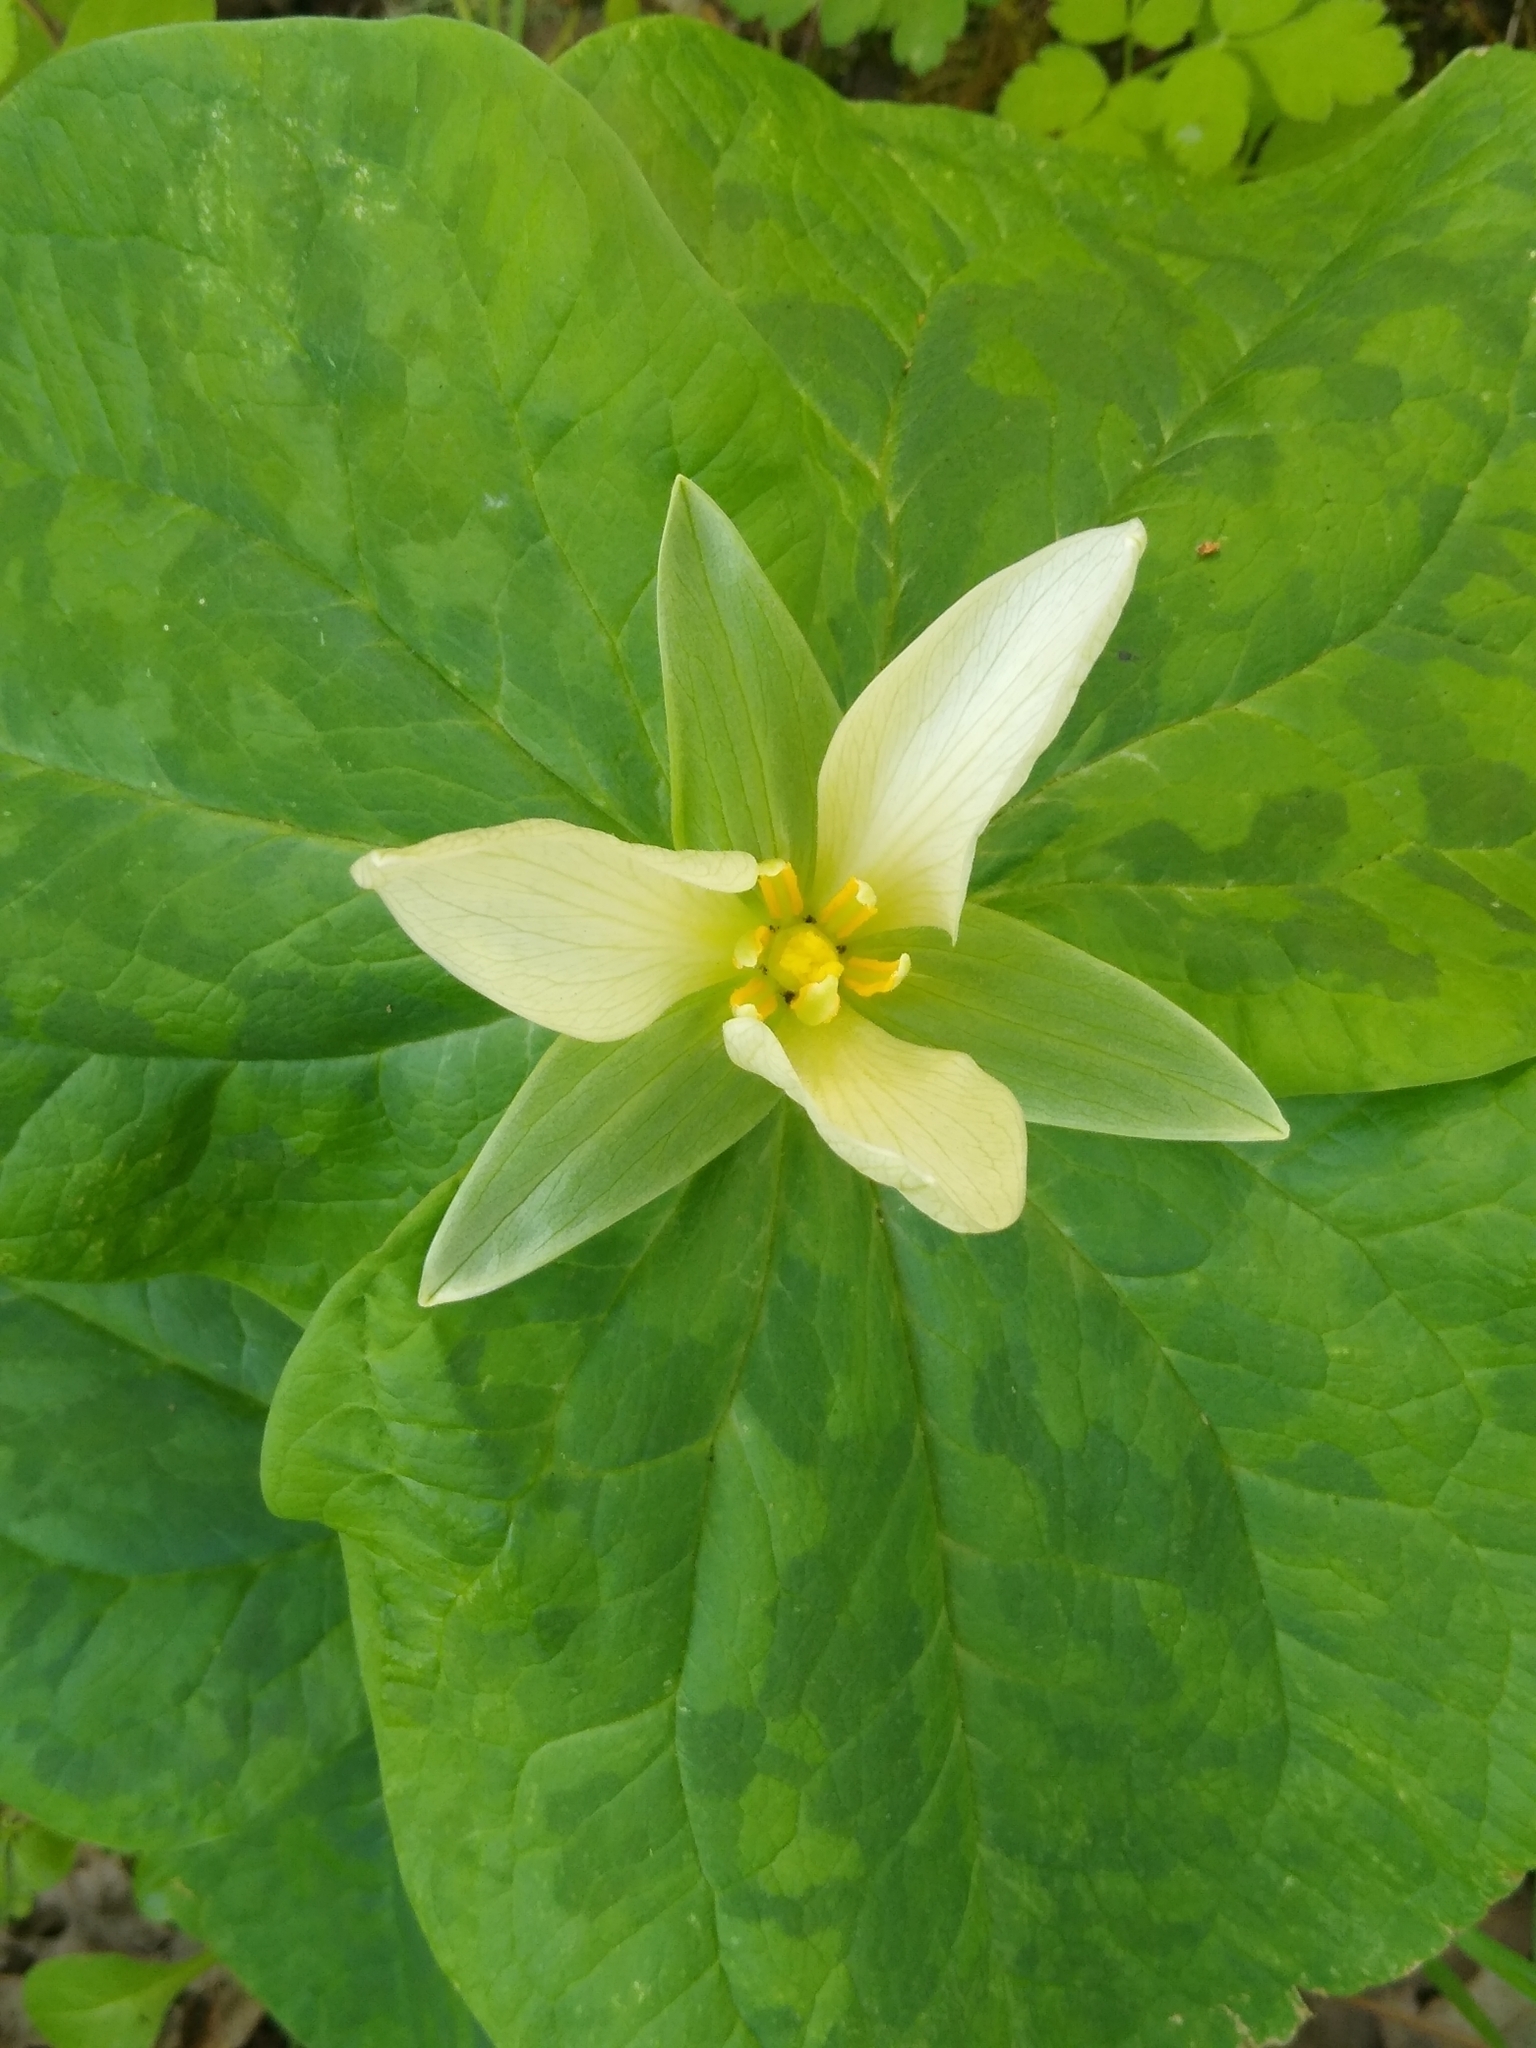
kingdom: Plantae
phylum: Tracheophyta
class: Liliopsida
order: Liliales
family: Melanthiaceae
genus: Trillium
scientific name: Trillium albidum
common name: Freeman's trillium
